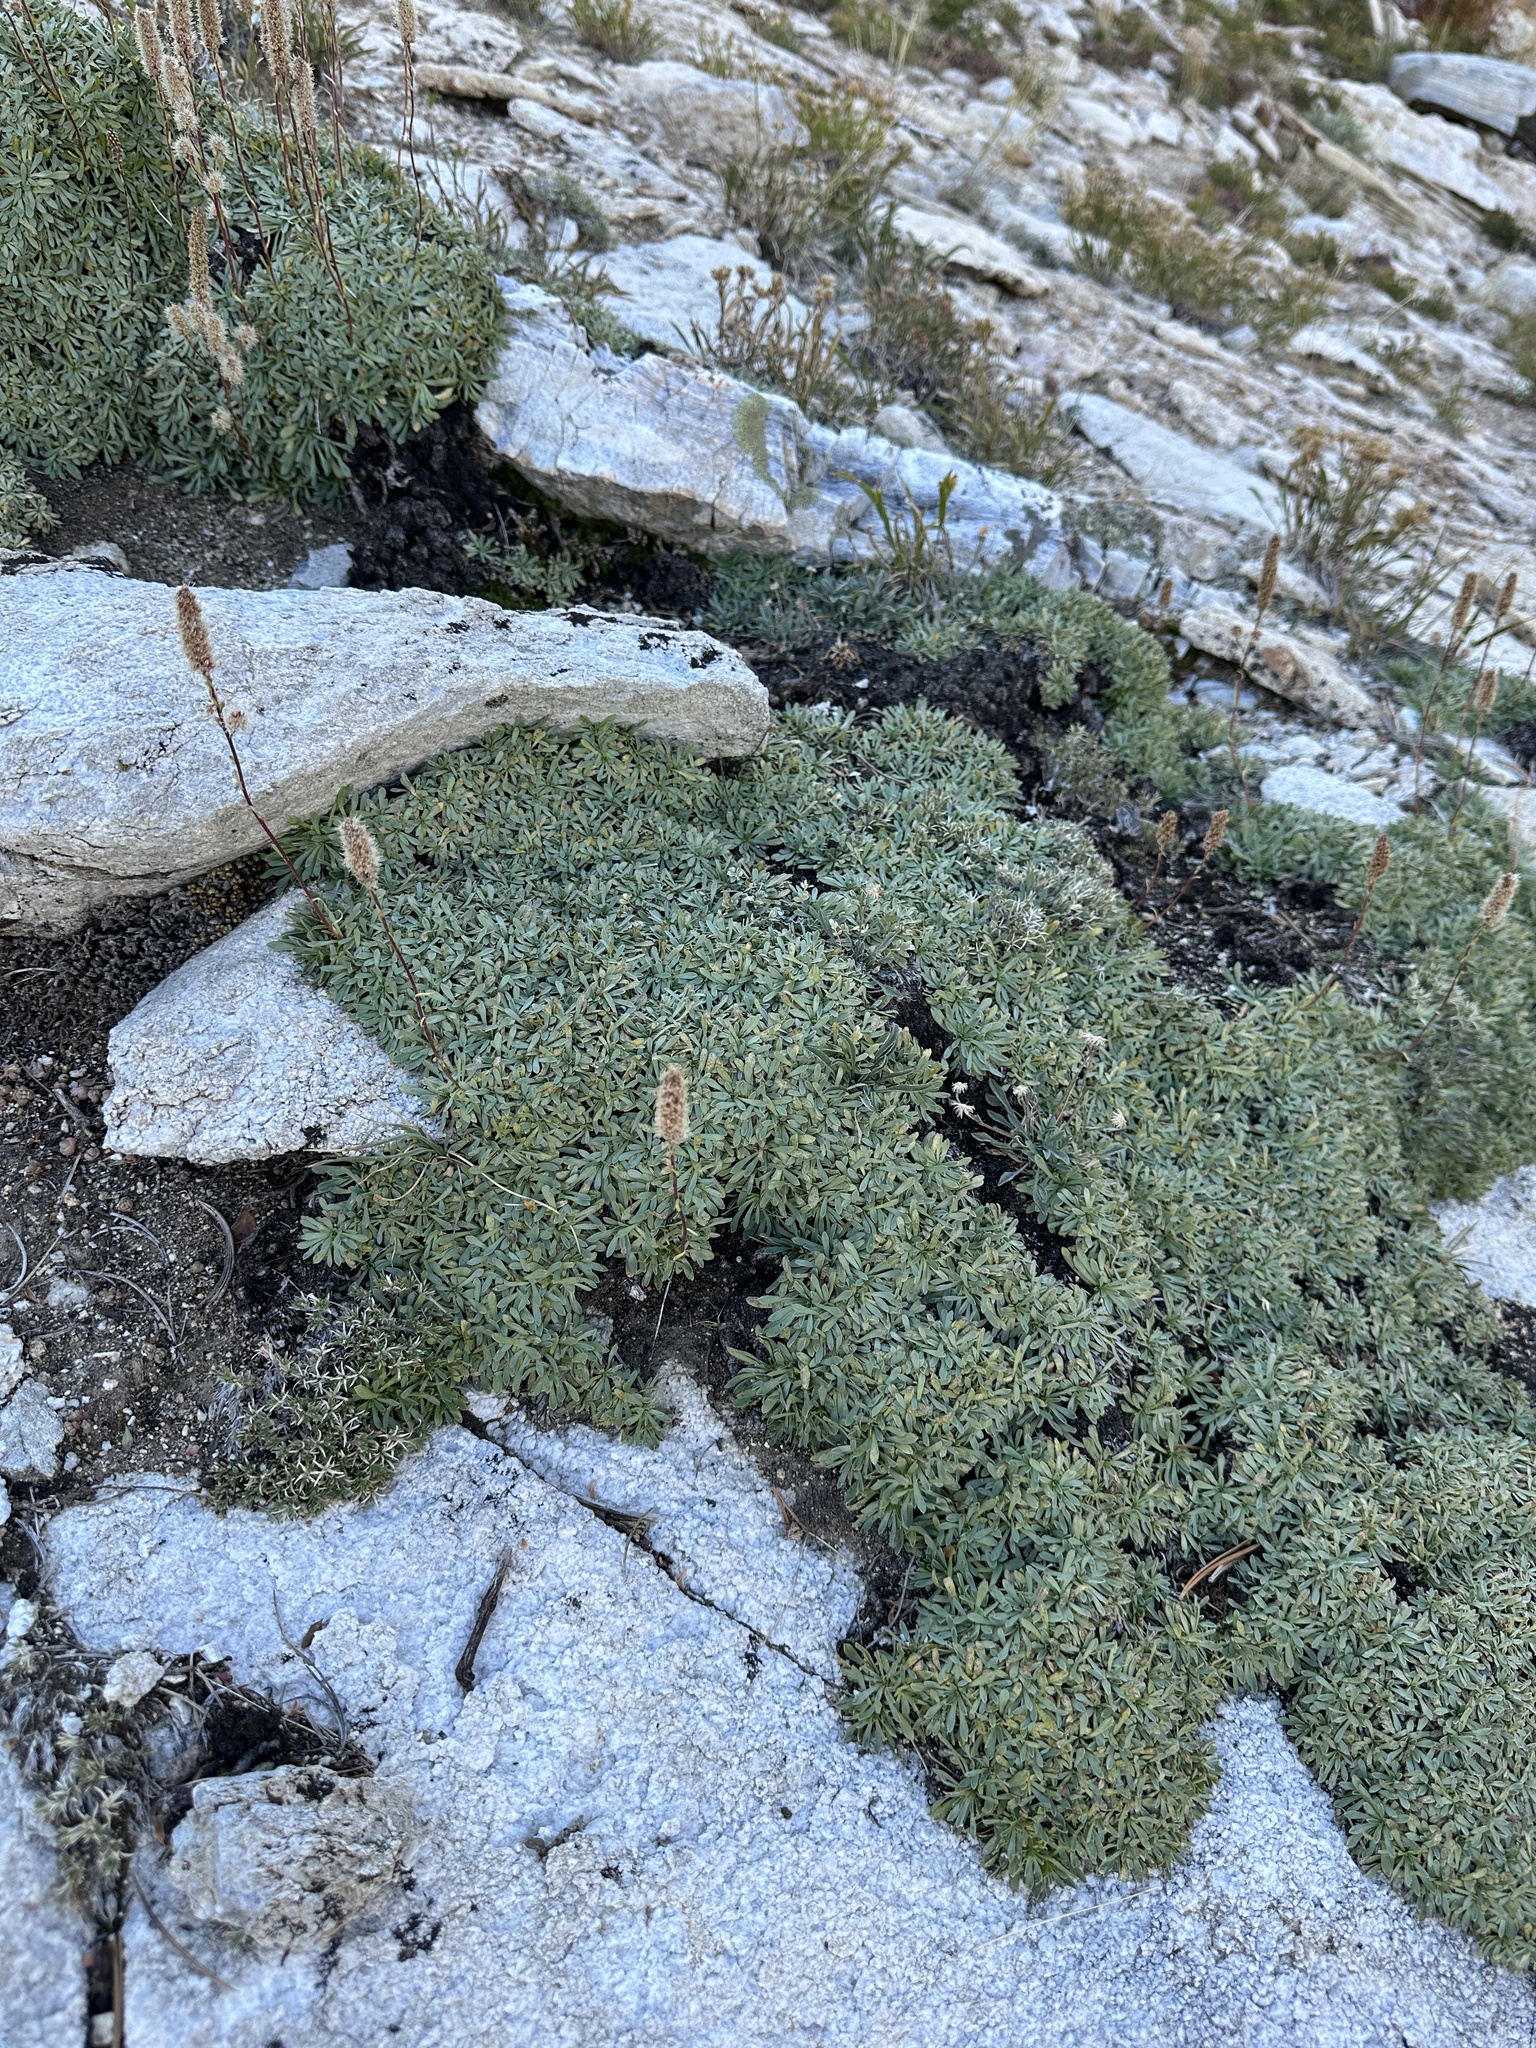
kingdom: Plantae
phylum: Tracheophyta
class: Magnoliopsida
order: Rosales
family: Rosaceae
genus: Petrophytum
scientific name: Petrophytum caespitosum
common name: Mat rockspirea
